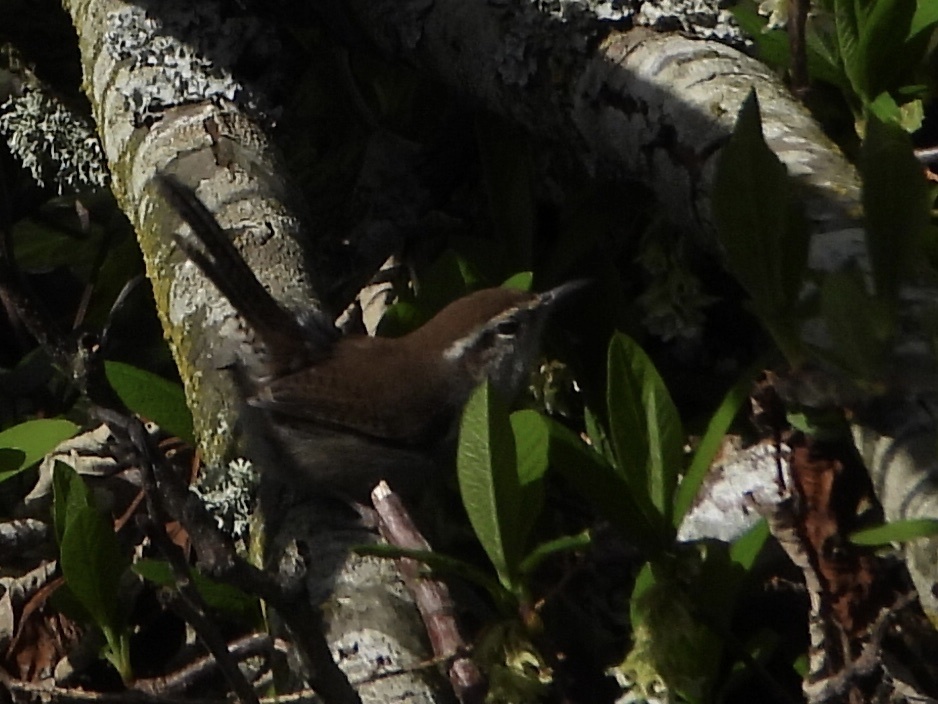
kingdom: Animalia
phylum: Chordata
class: Aves
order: Passeriformes
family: Troglodytidae
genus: Thryomanes
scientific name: Thryomanes bewickii
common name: Bewick's wren
